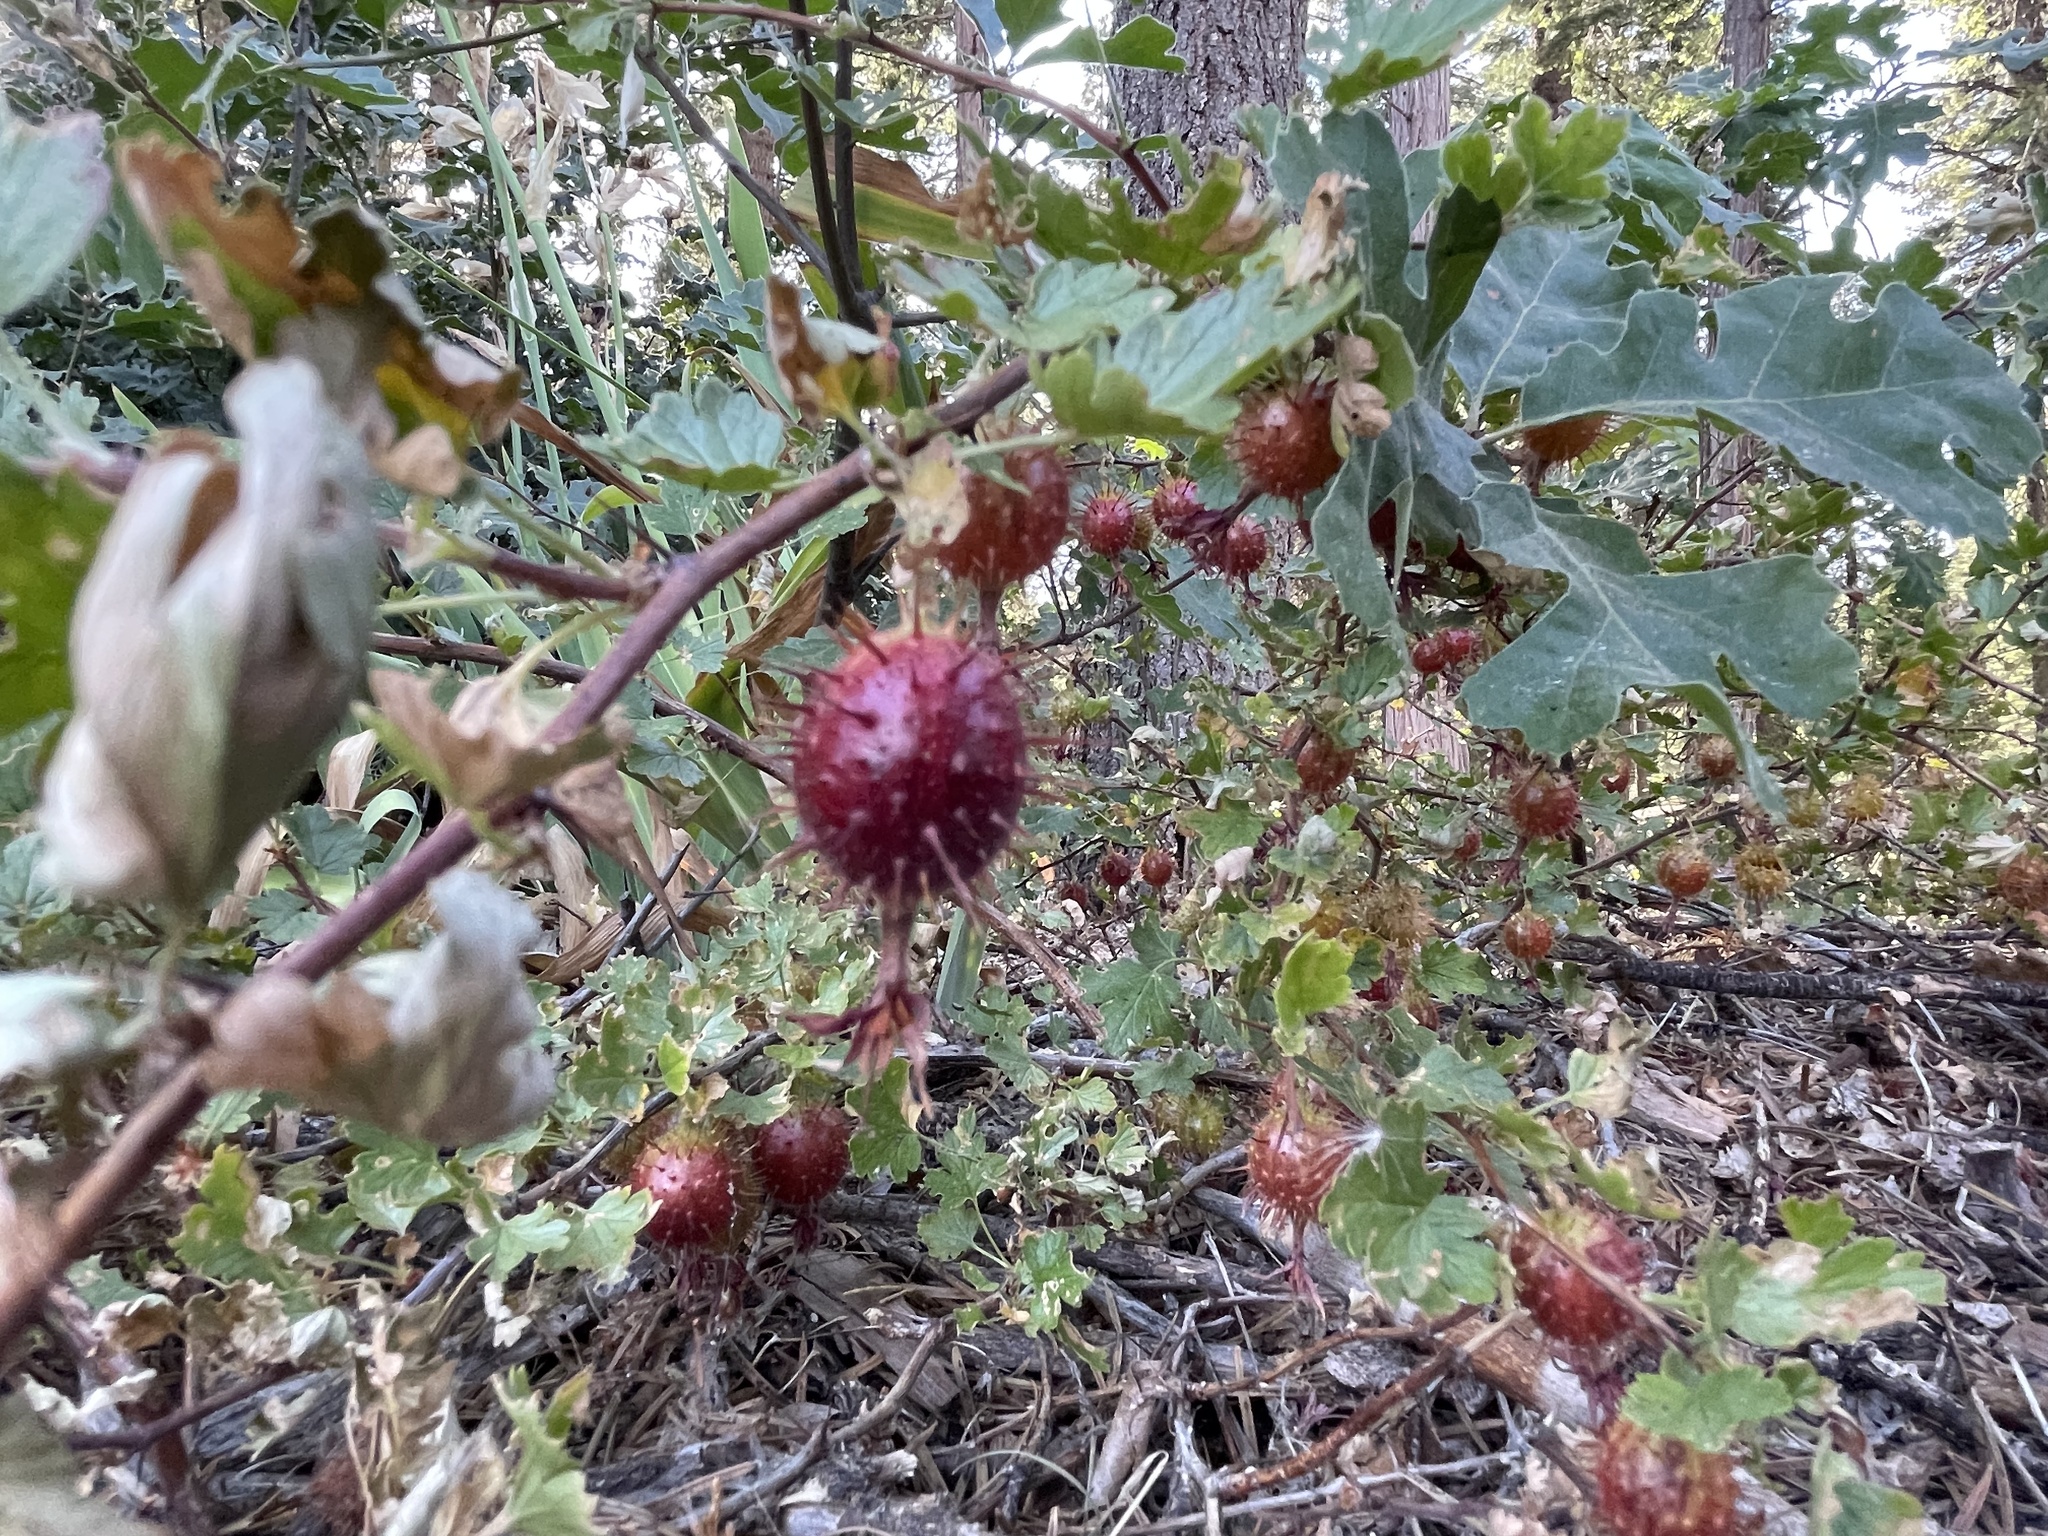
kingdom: Plantae
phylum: Tracheophyta
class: Magnoliopsida
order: Saxifragales
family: Grossulariaceae
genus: Ribes
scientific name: Ribes roezlii
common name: Sierra gooseberry
